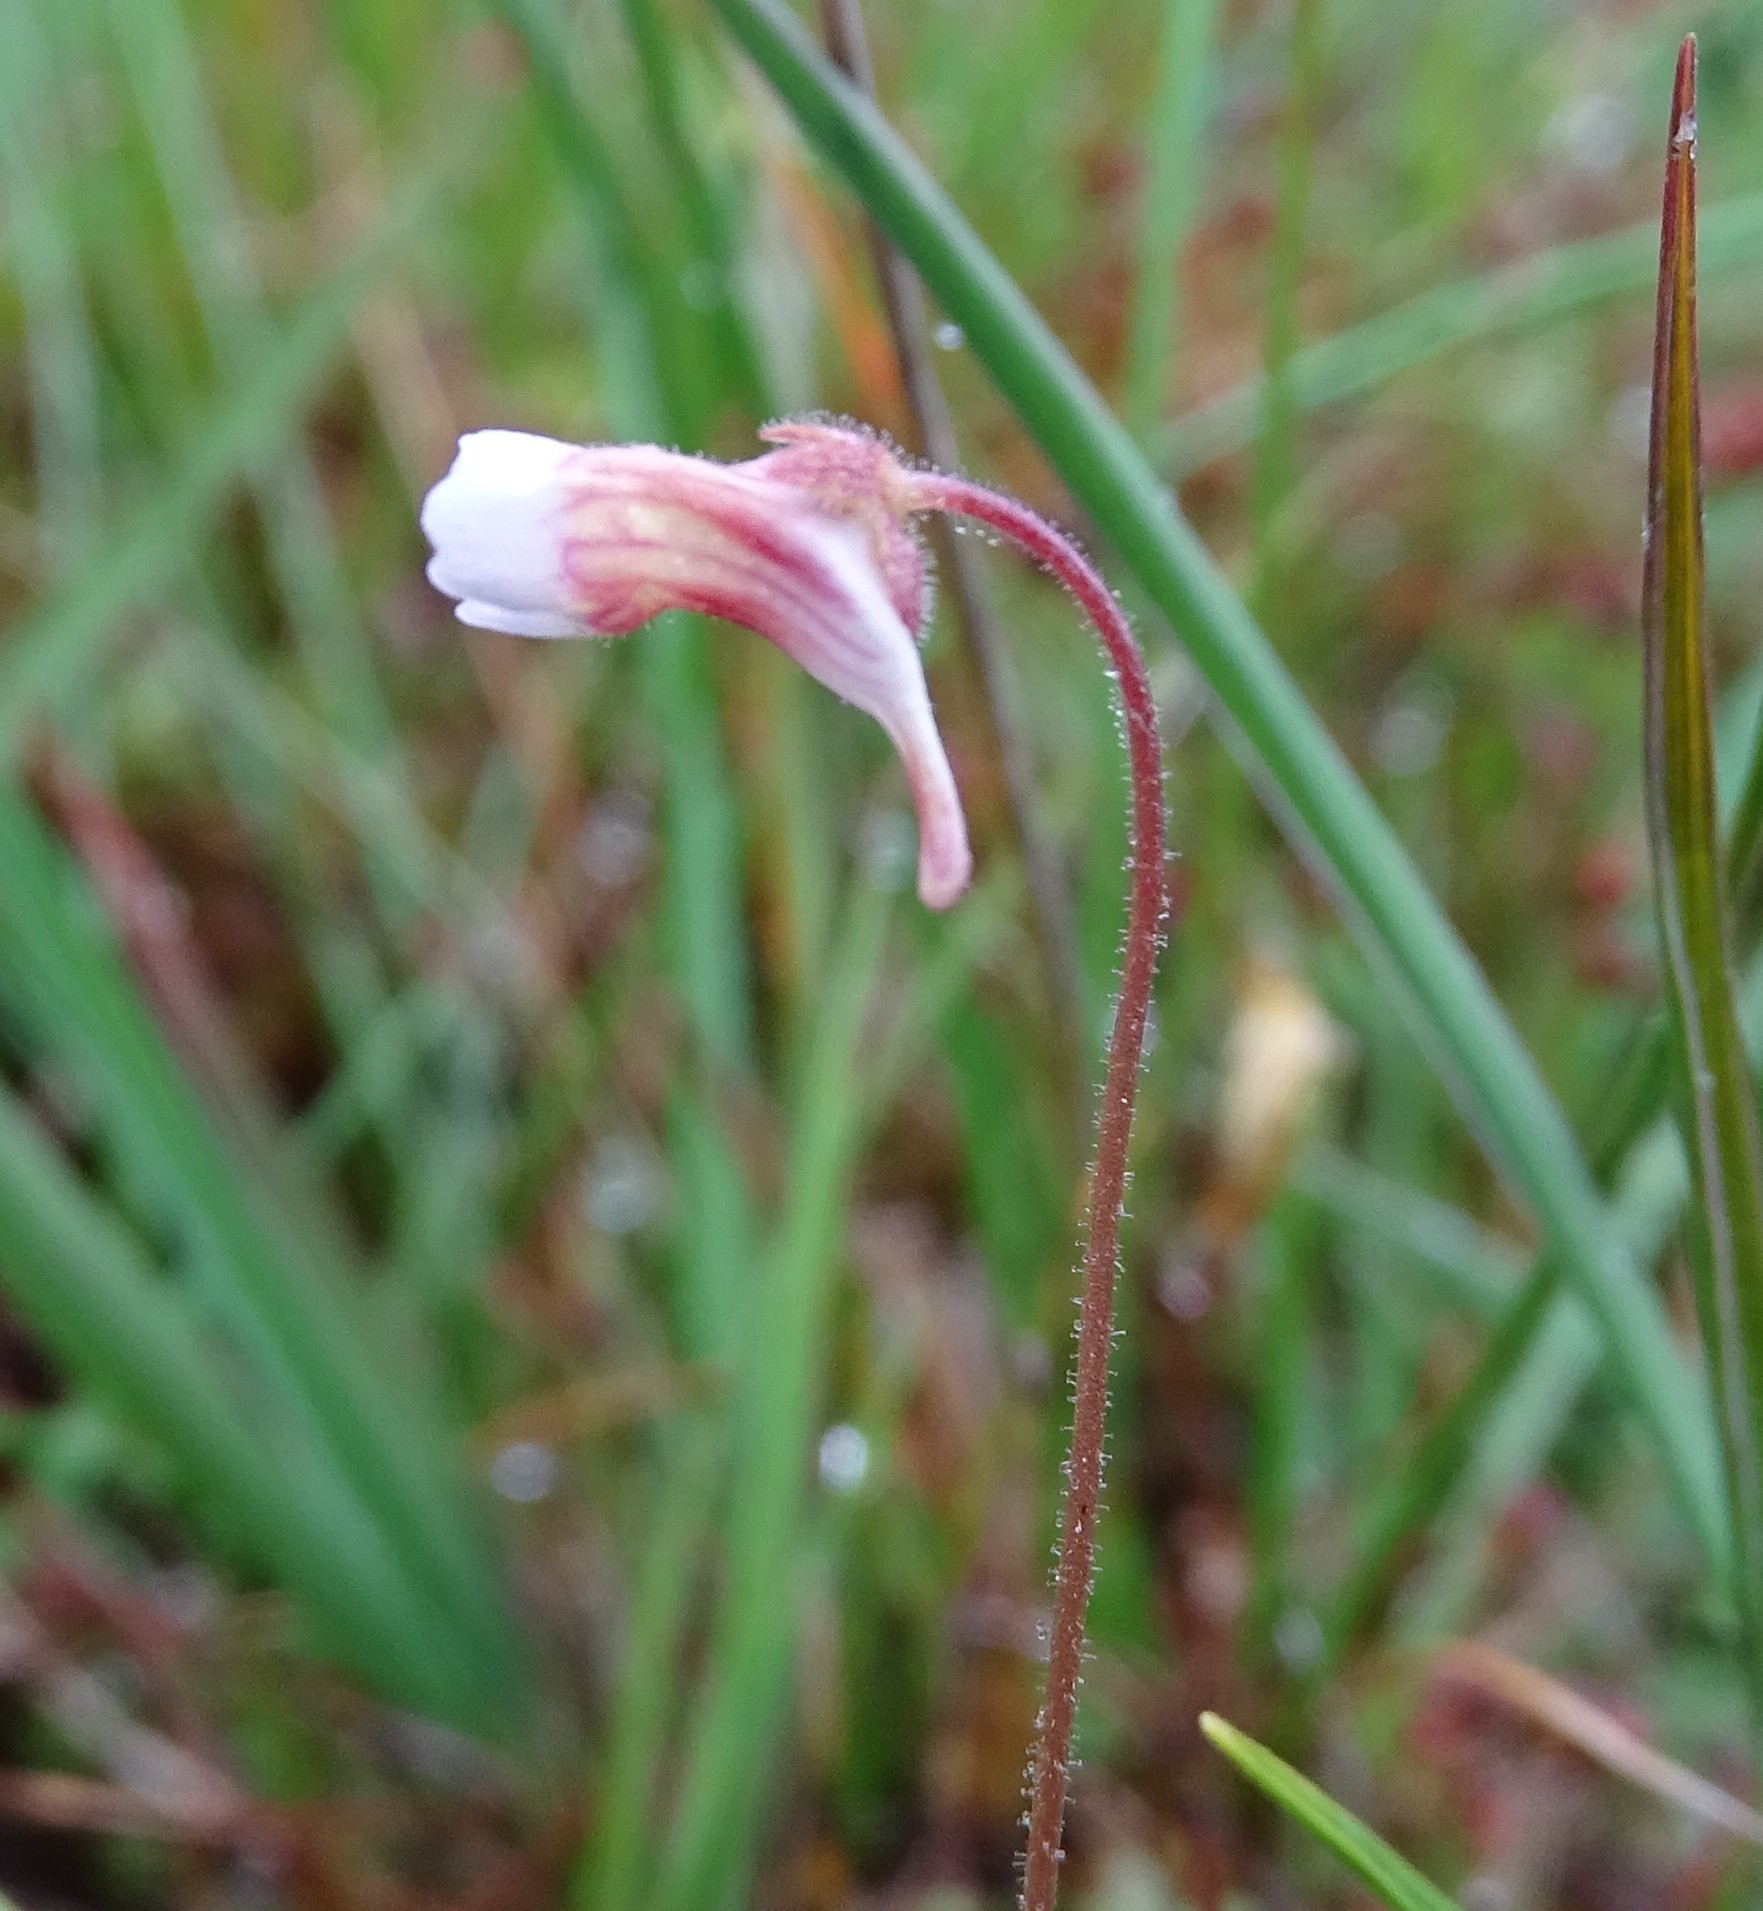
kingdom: Plantae
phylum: Tracheophyta
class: Magnoliopsida
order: Lamiales
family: Lentibulariaceae
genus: Pinguicula
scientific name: Pinguicula lusitanica
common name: Pale butterwort
